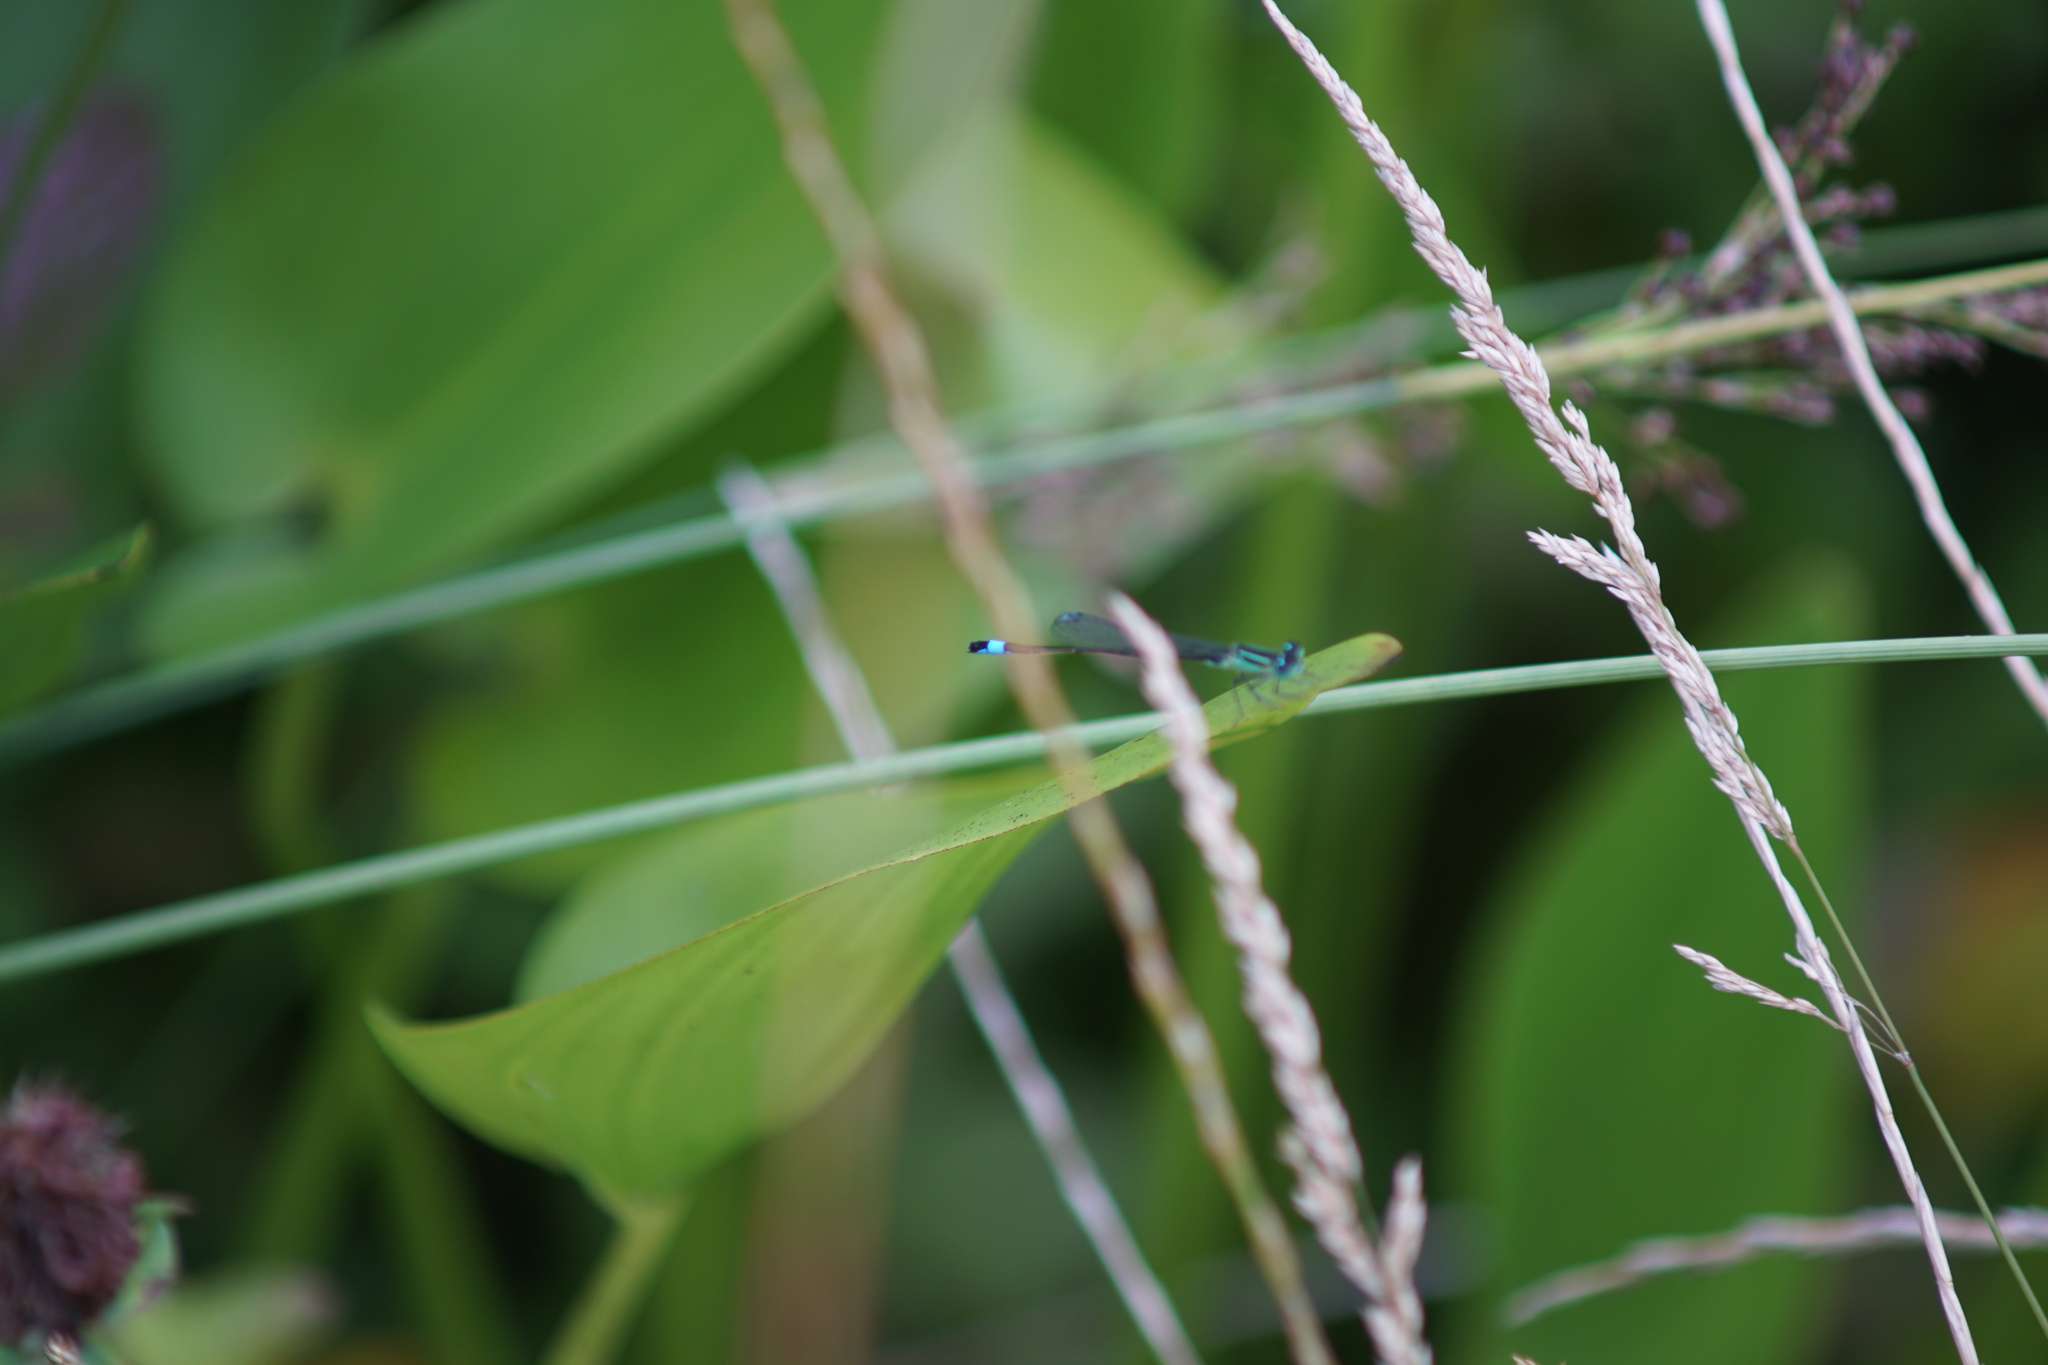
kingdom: Animalia
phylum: Arthropoda
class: Insecta
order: Odonata
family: Coenagrionidae
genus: Ischnura
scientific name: Ischnura elegans
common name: Blue-tailed damselfly
